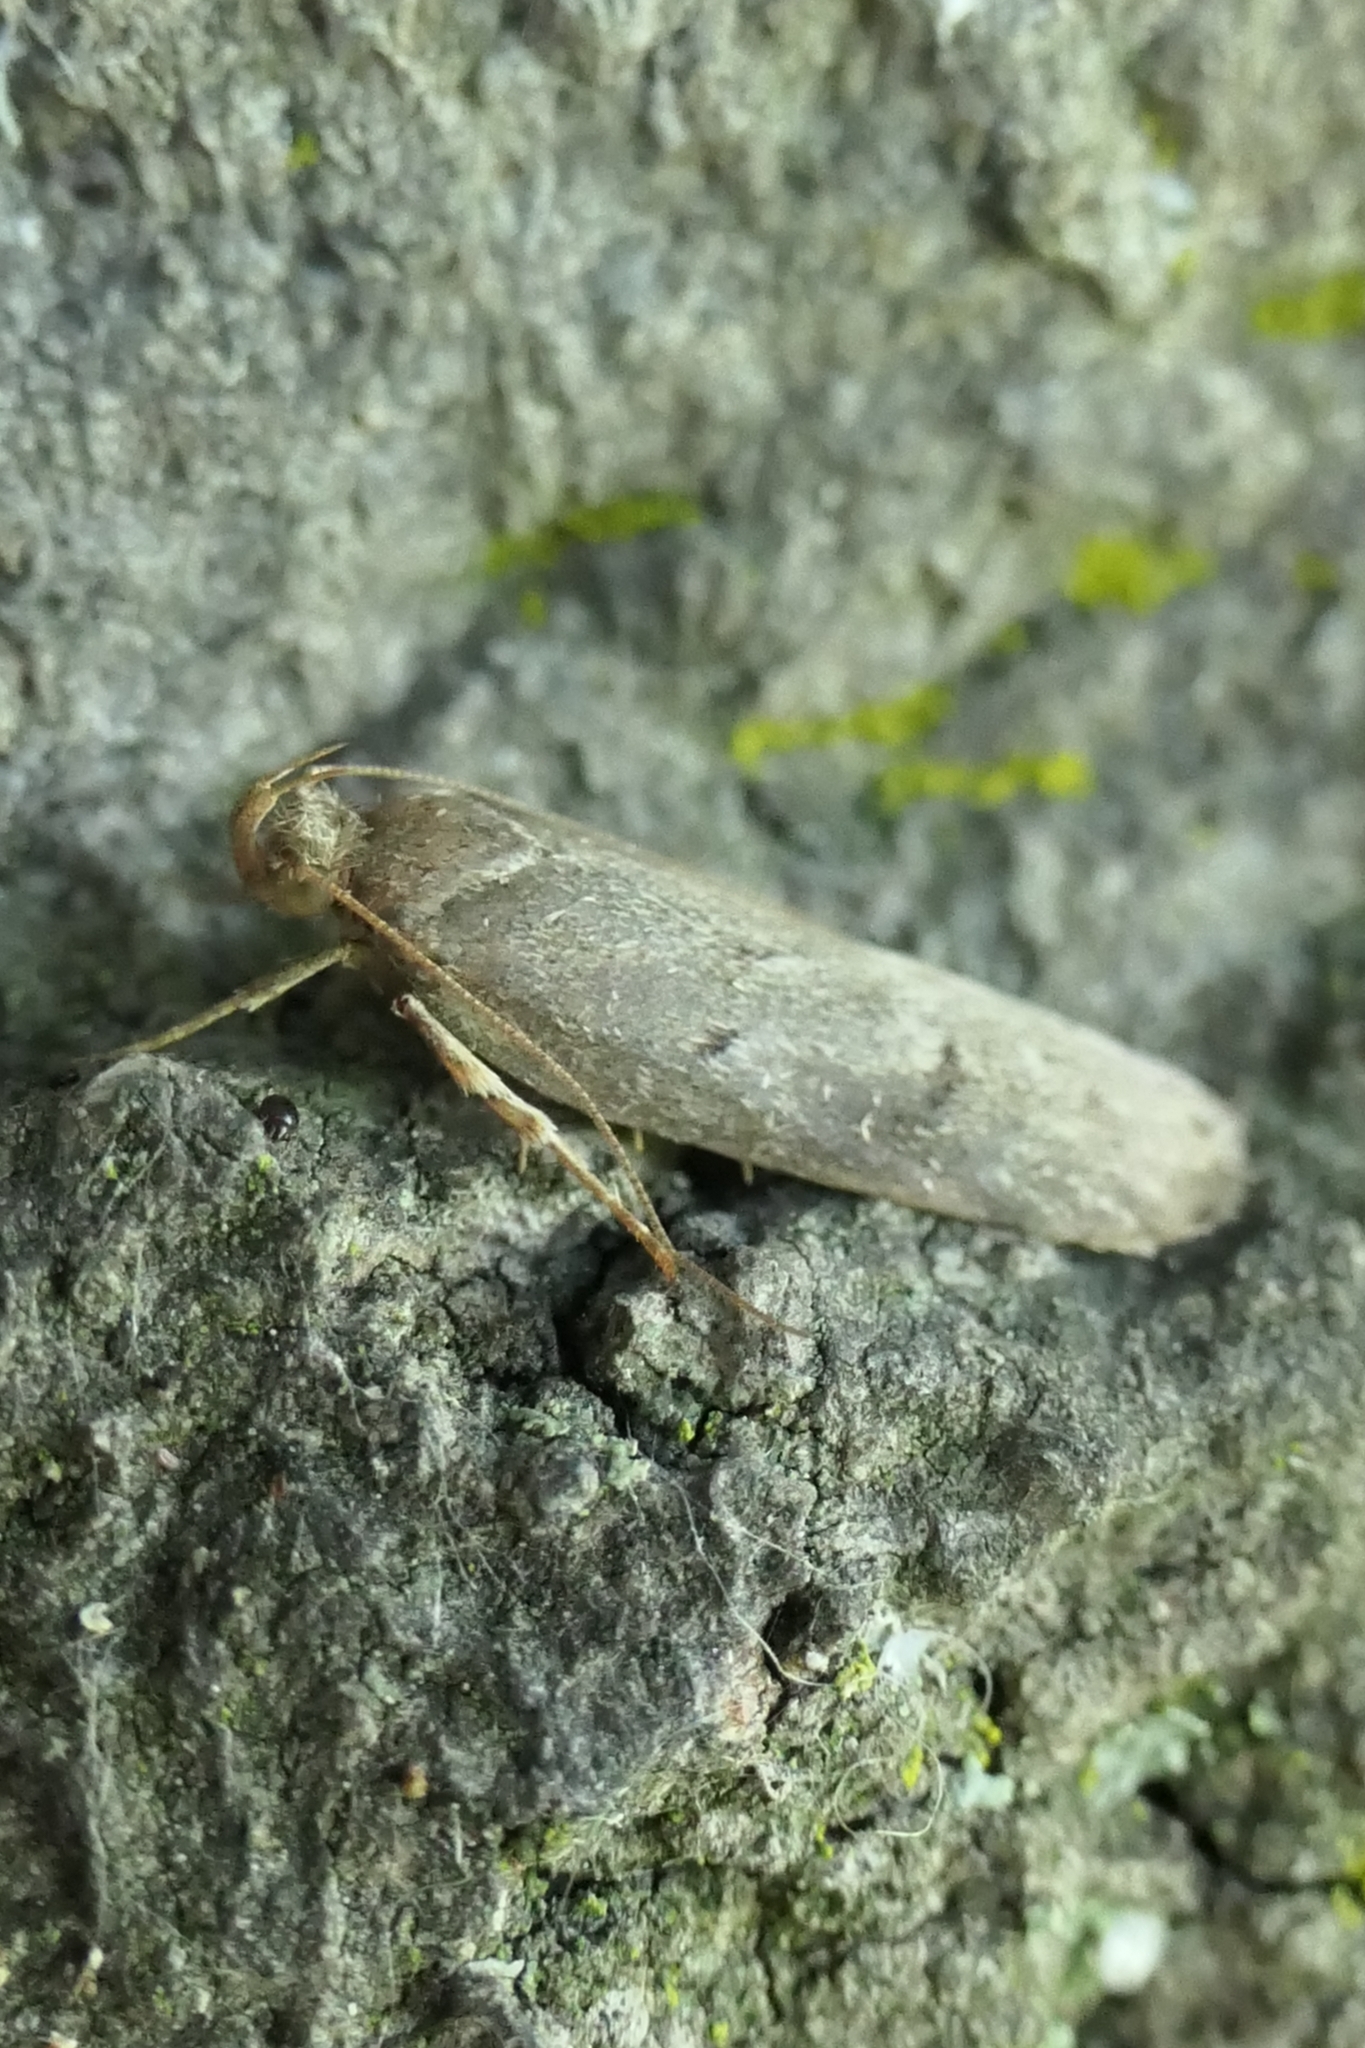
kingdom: Animalia
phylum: Arthropoda
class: Insecta
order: Lepidoptera
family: Depressariidae
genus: Phaeosaces
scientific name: Phaeosaces apocrypta
